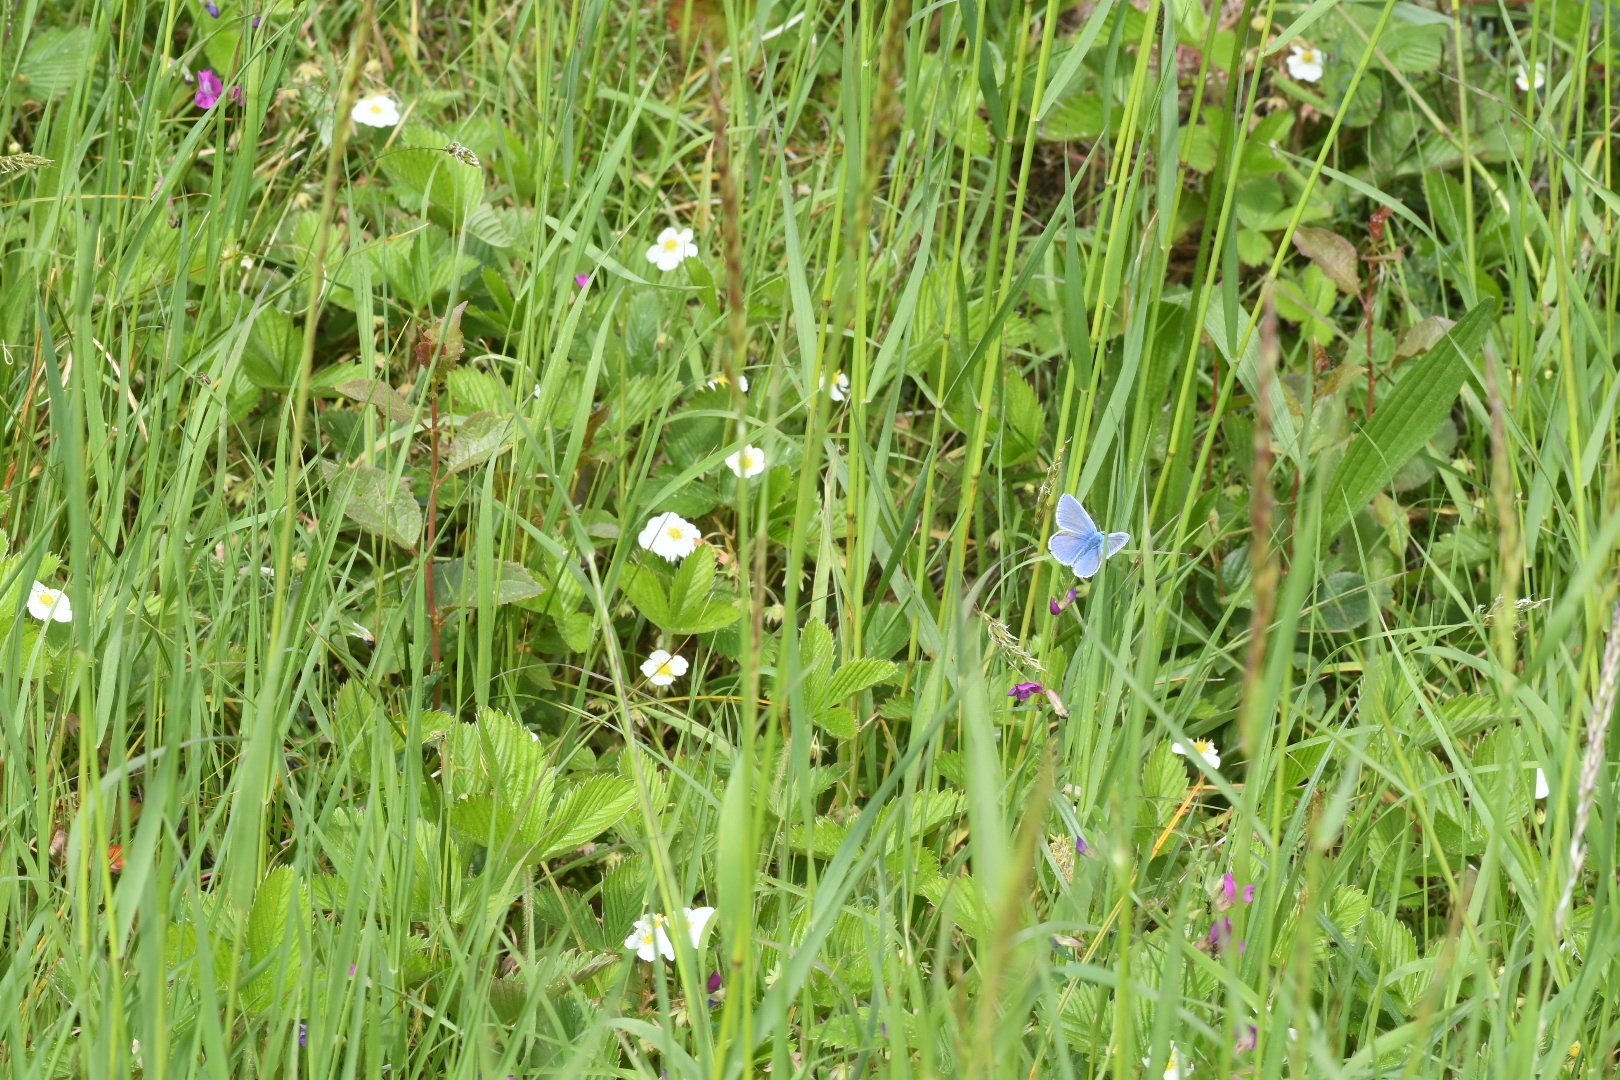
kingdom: Animalia
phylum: Arthropoda
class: Insecta
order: Lepidoptera
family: Lycaenidae
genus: Polyommatus
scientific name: Polyommatus icarus
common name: Common blue
